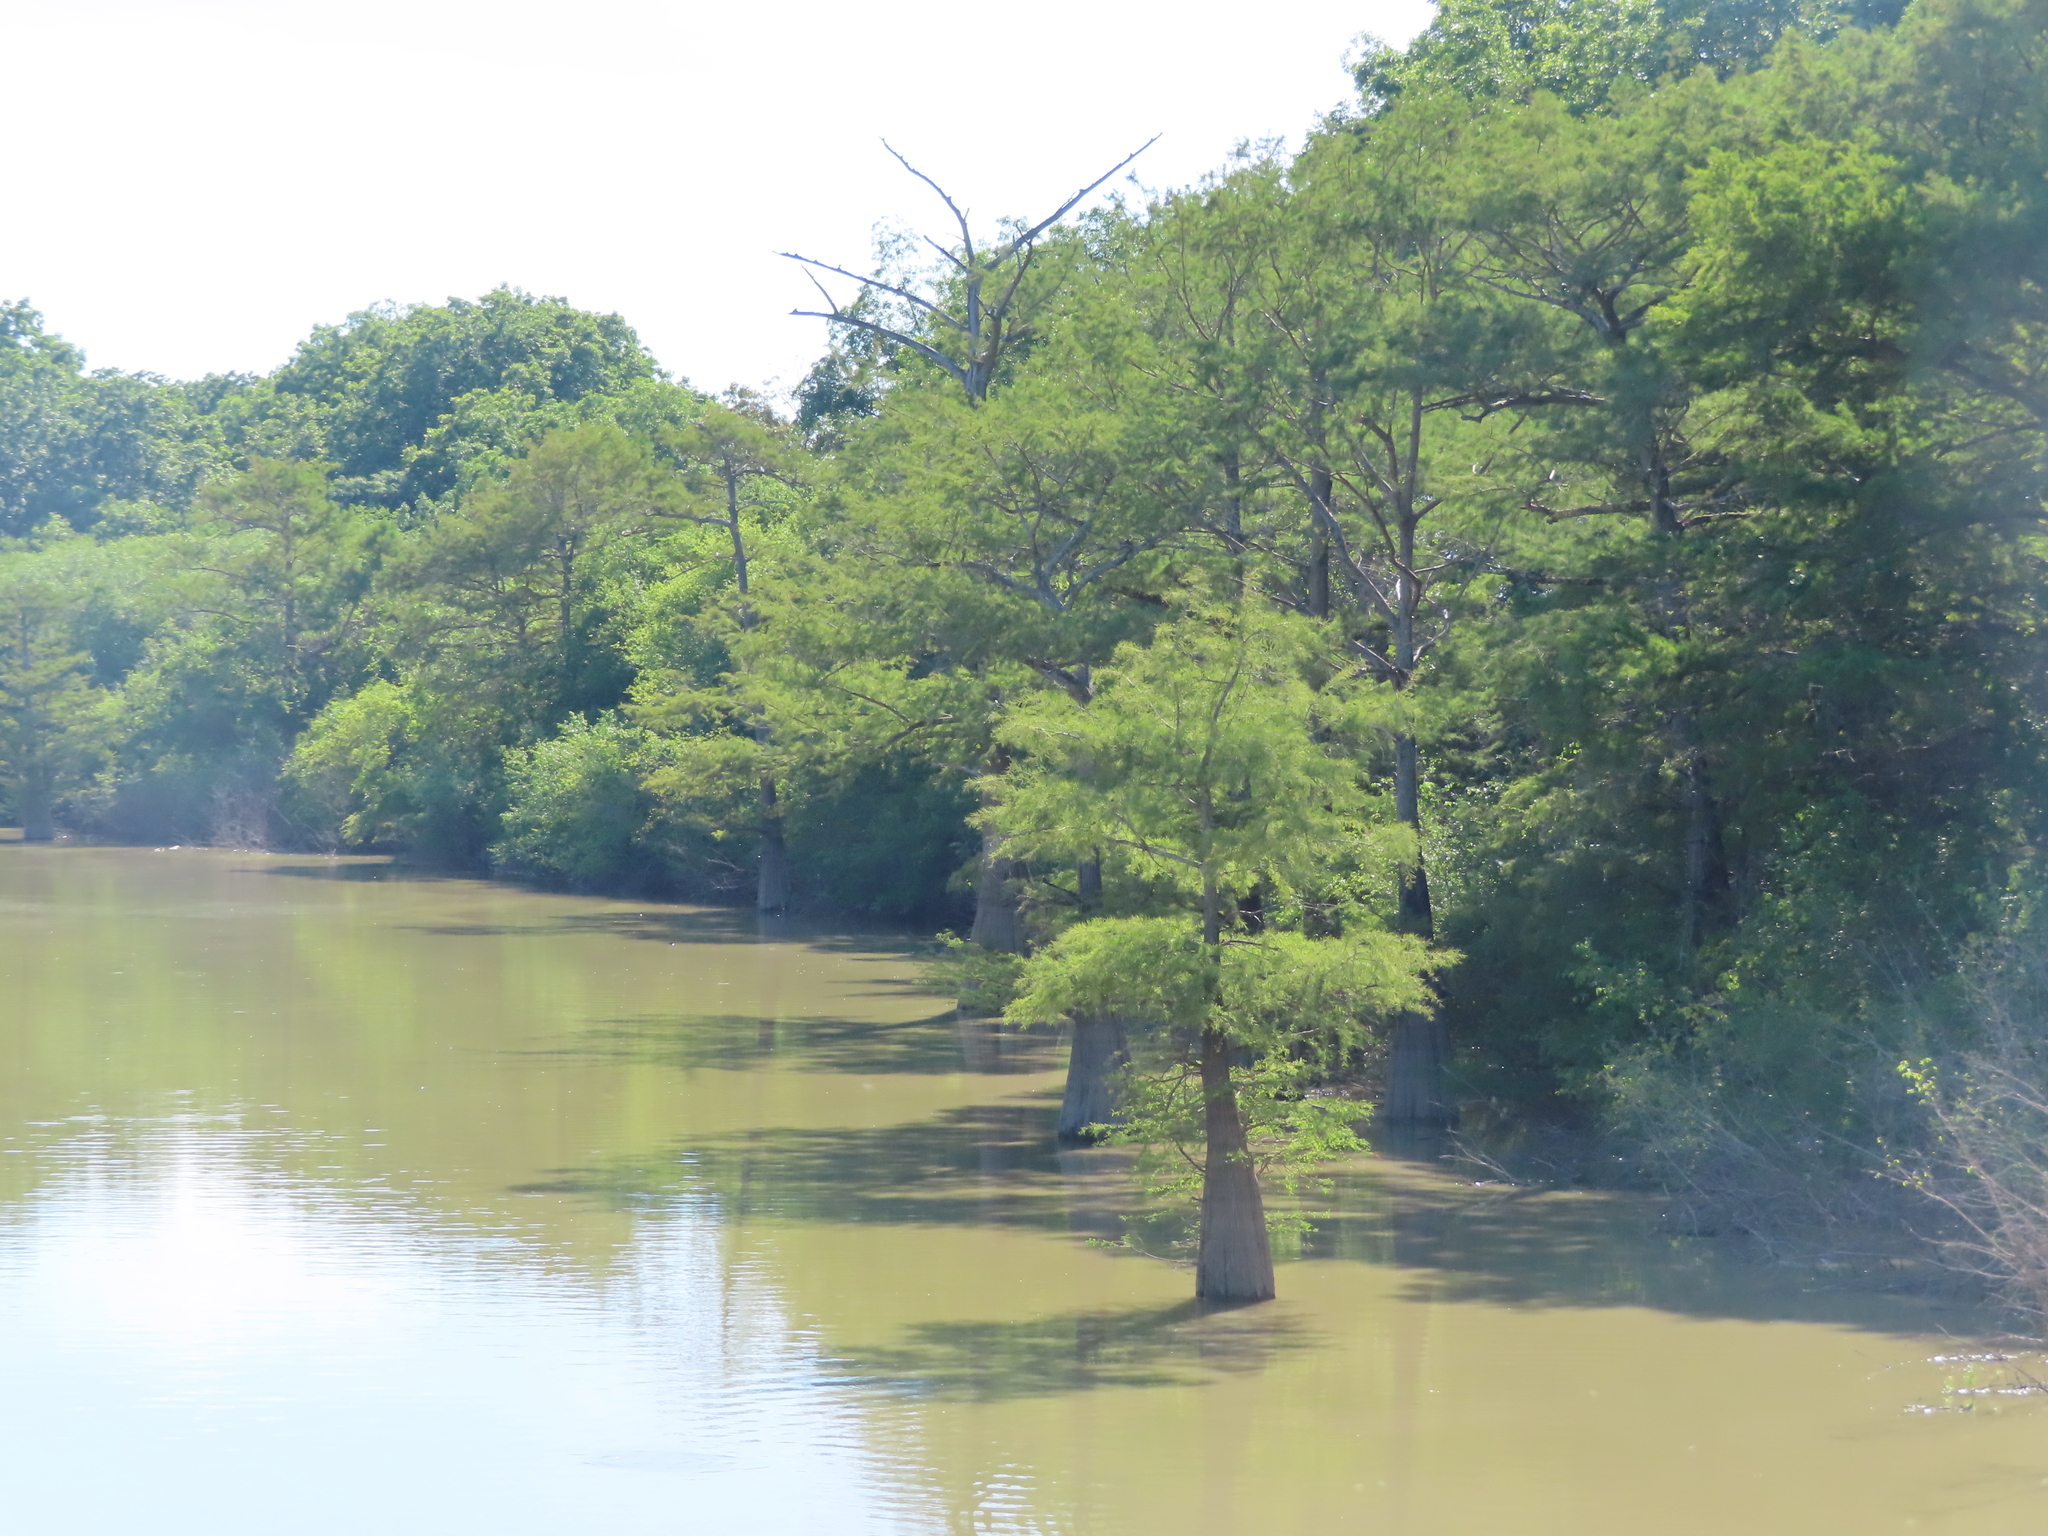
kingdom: Plantae
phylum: Tracheophyta
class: Pinopsida
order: Pinales
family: Cupressaceae
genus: Taxodium
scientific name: Taxodium distichum
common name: Bald cypress
